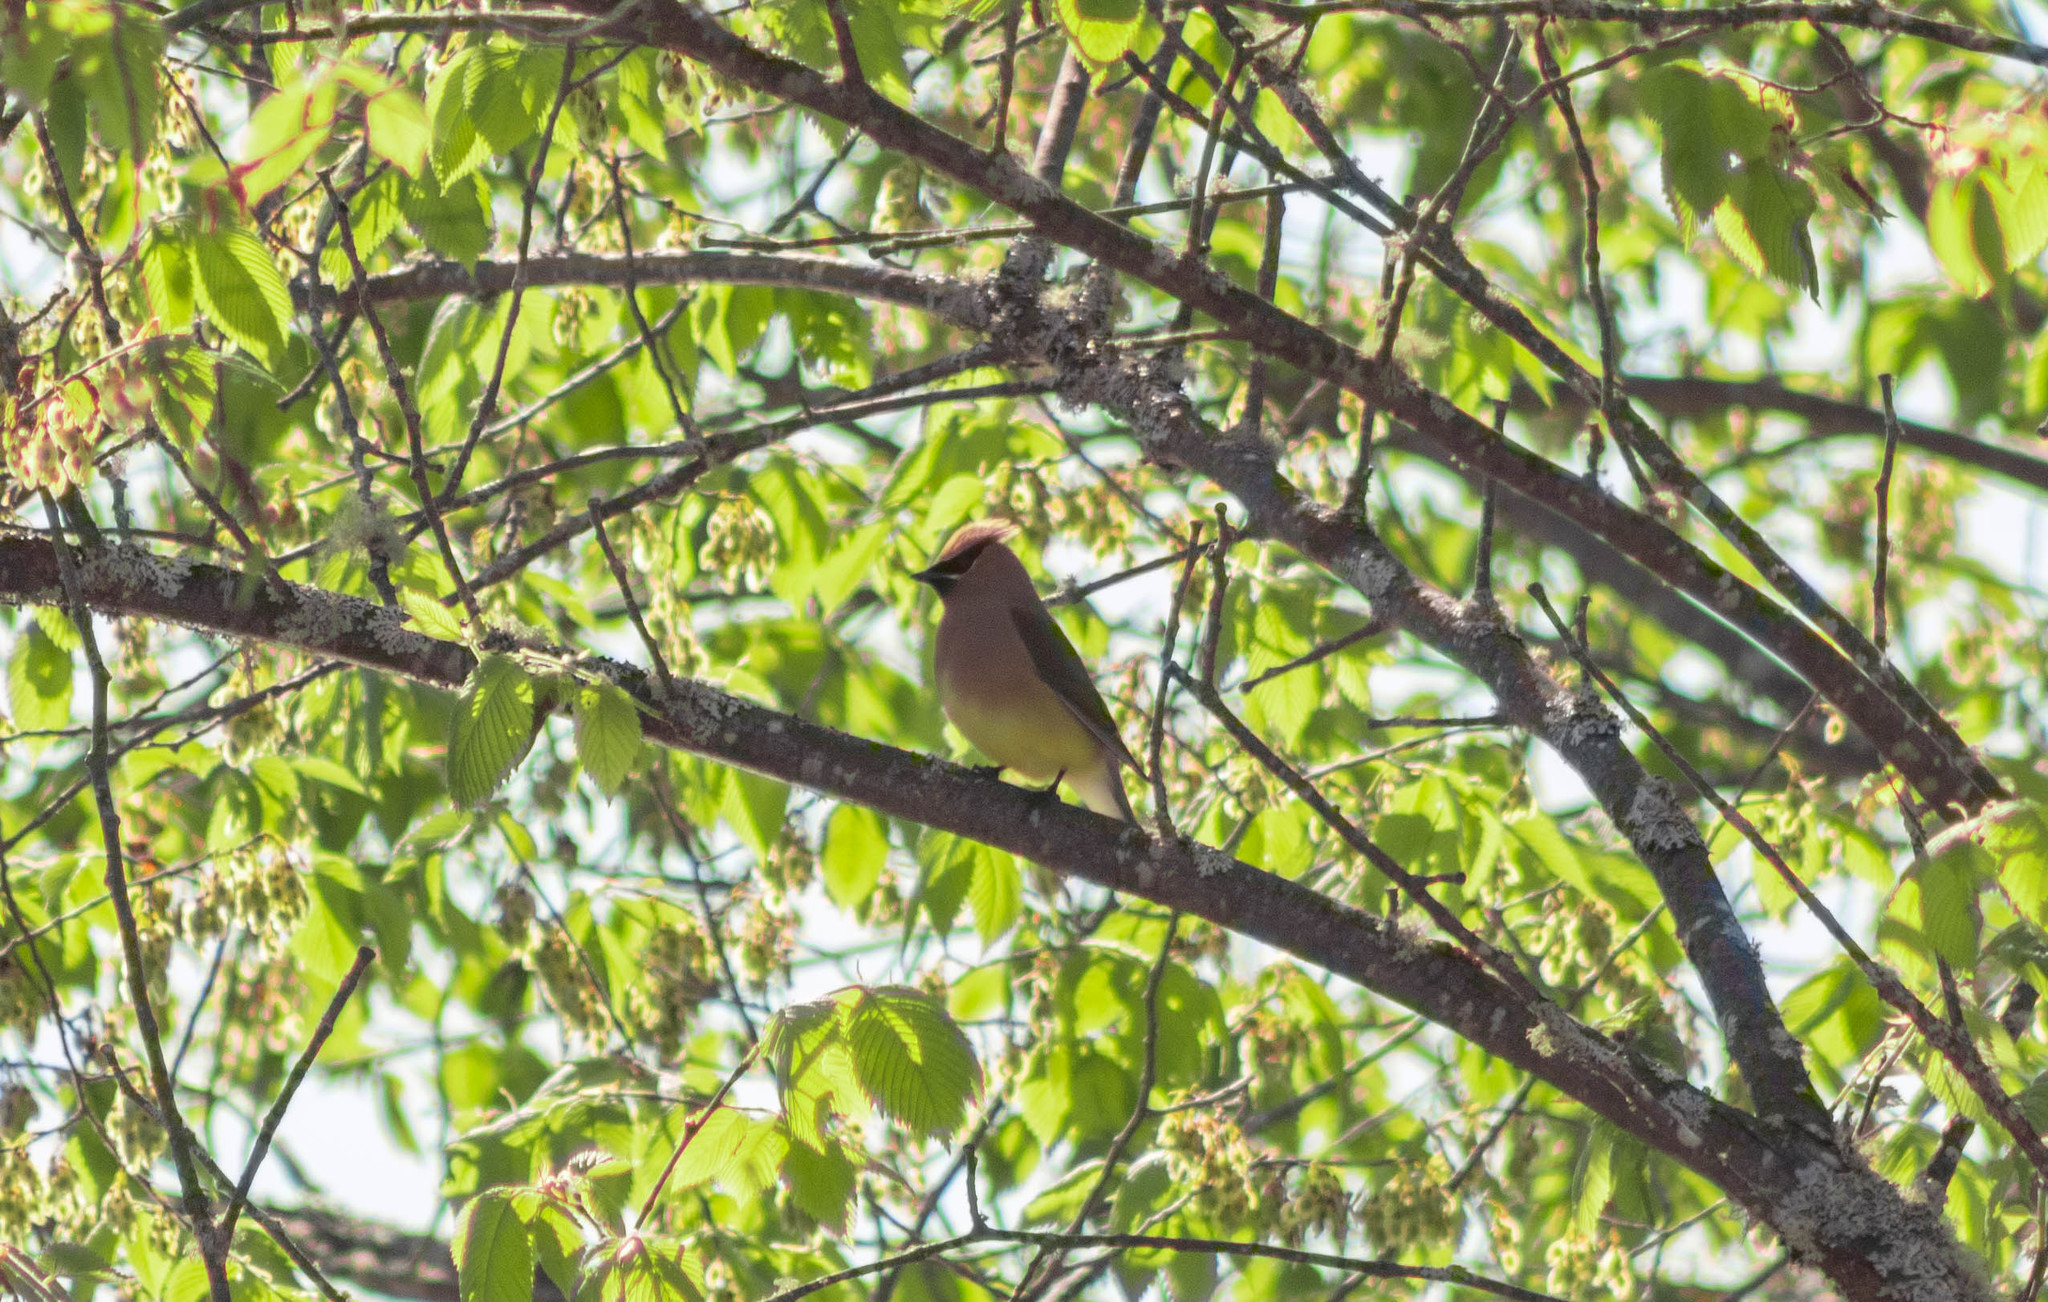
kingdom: Animalia
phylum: Chordata
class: Aves
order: Passeriformes
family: Bombycillidae
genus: Bombycilla
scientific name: Bombycilla cedrorum
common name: Cedar waxwing
